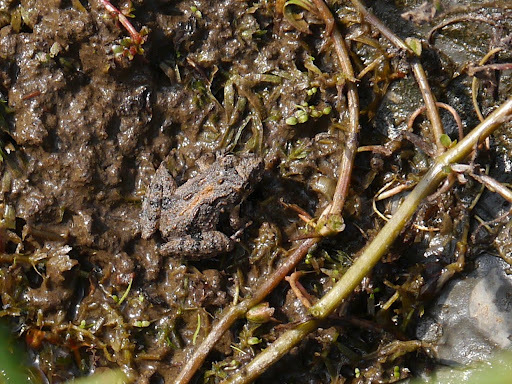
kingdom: Animalia
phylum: Chordata
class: Amphibia
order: Anura
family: Hylidae
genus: Acris
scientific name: Acris crepitans
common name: Northern cricket frog
